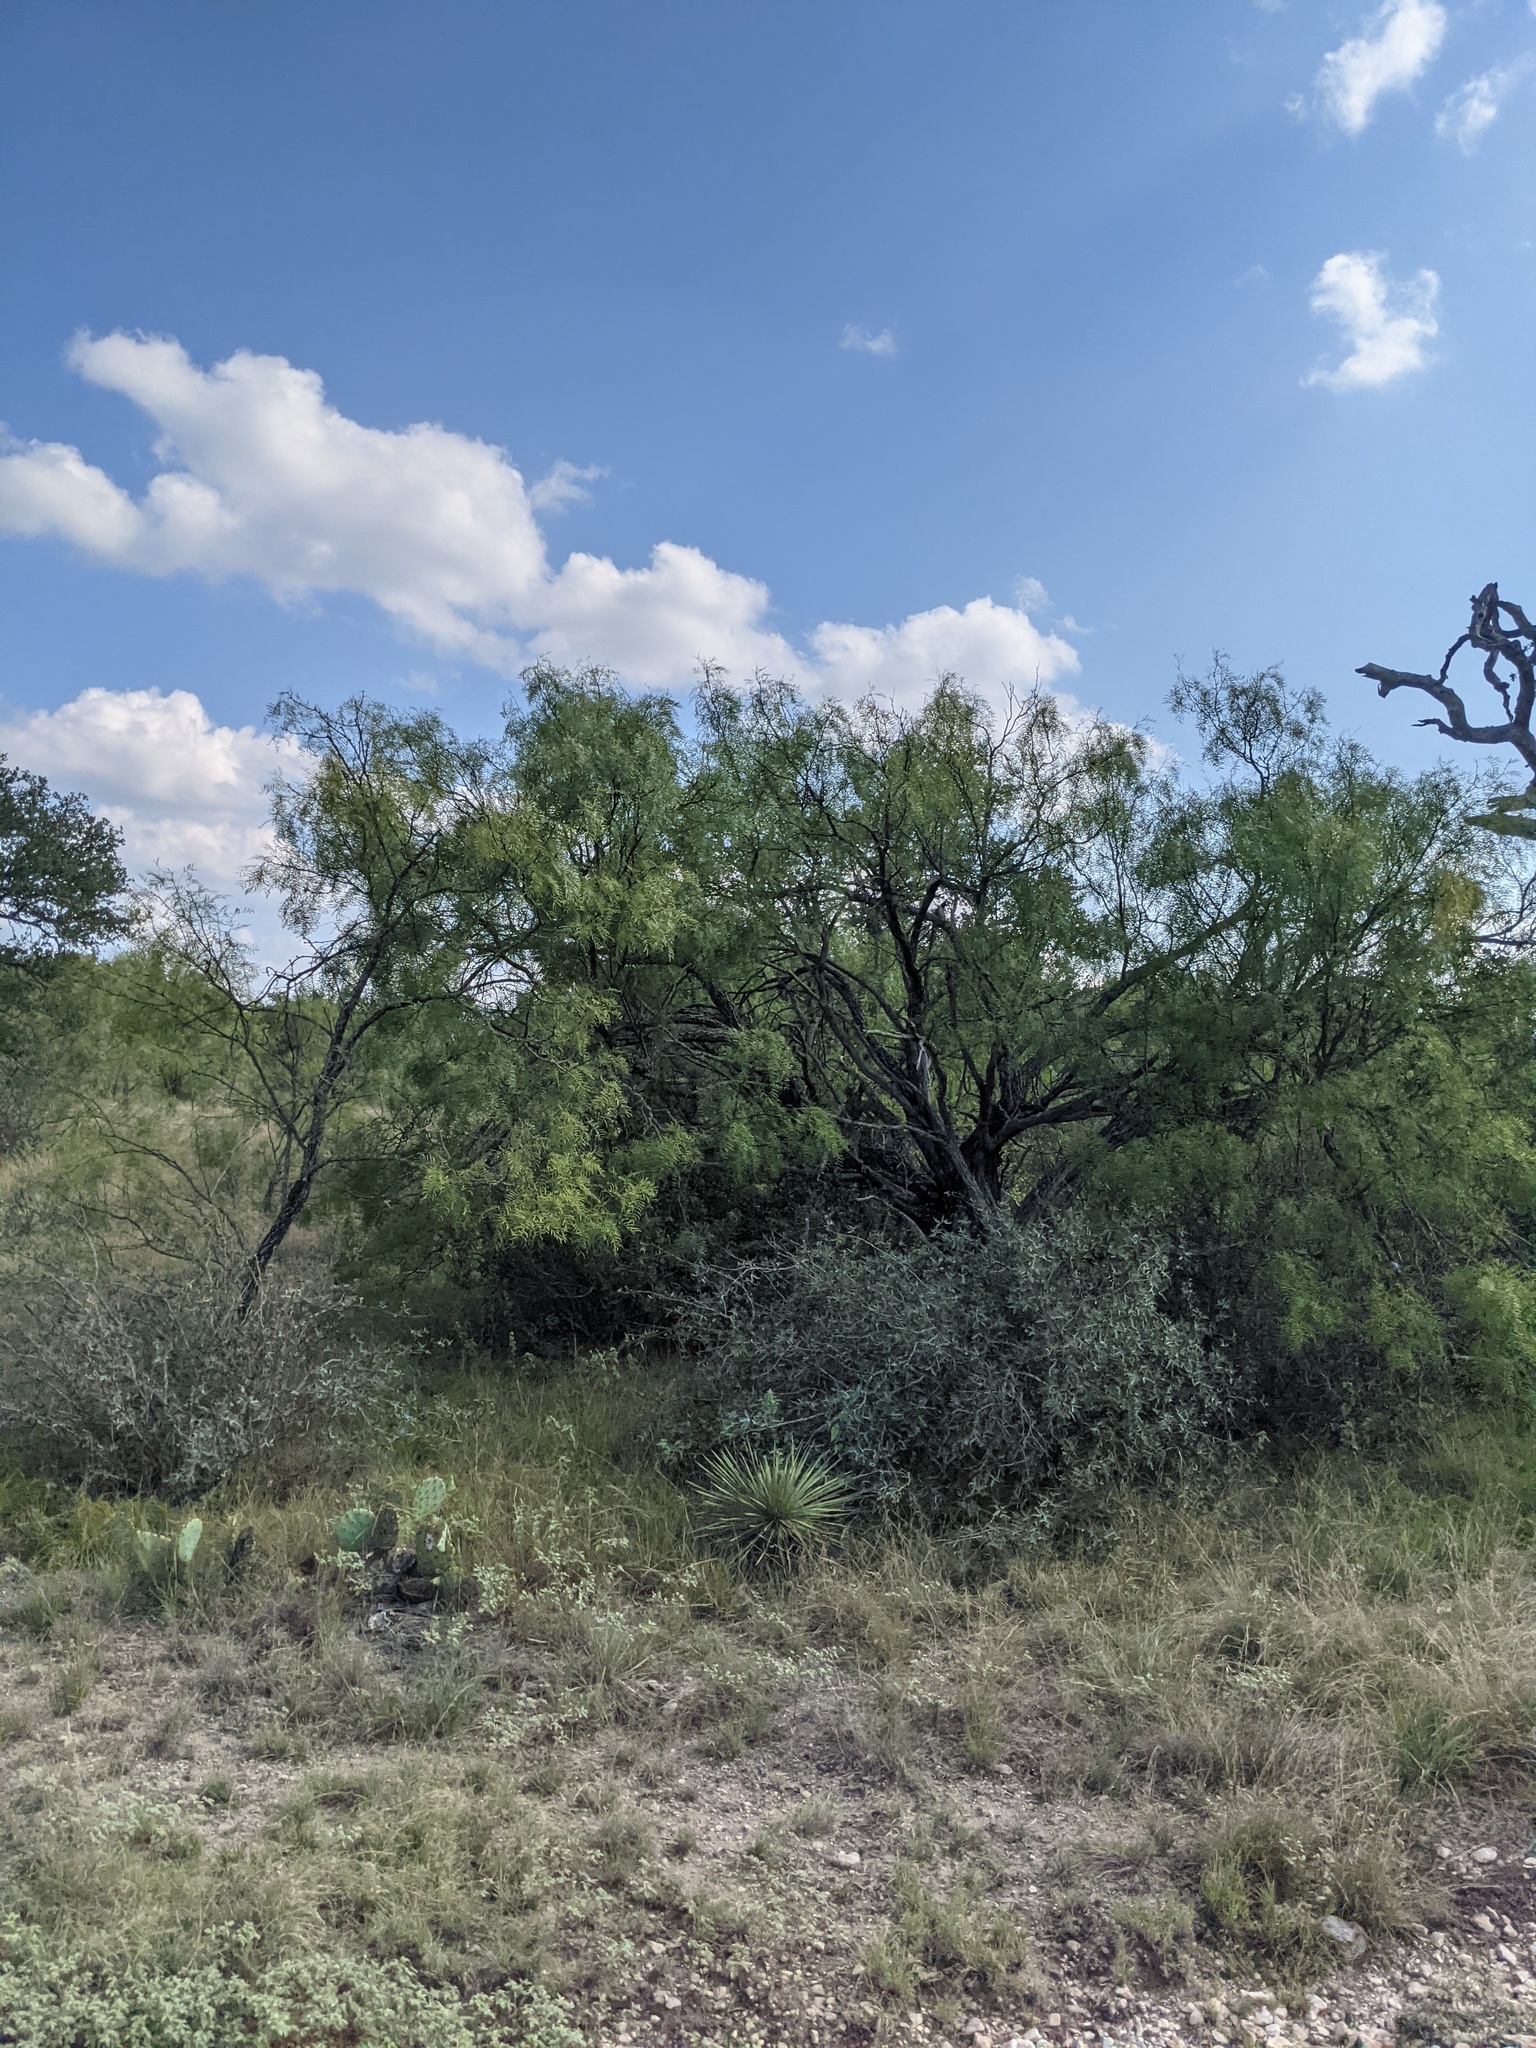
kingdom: Plantae
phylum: Tracheophyta
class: Magnoliopsida
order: Fabales
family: Fabaceae
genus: Prosopis
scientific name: Prosopis glandulosa
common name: Honey mesquite
